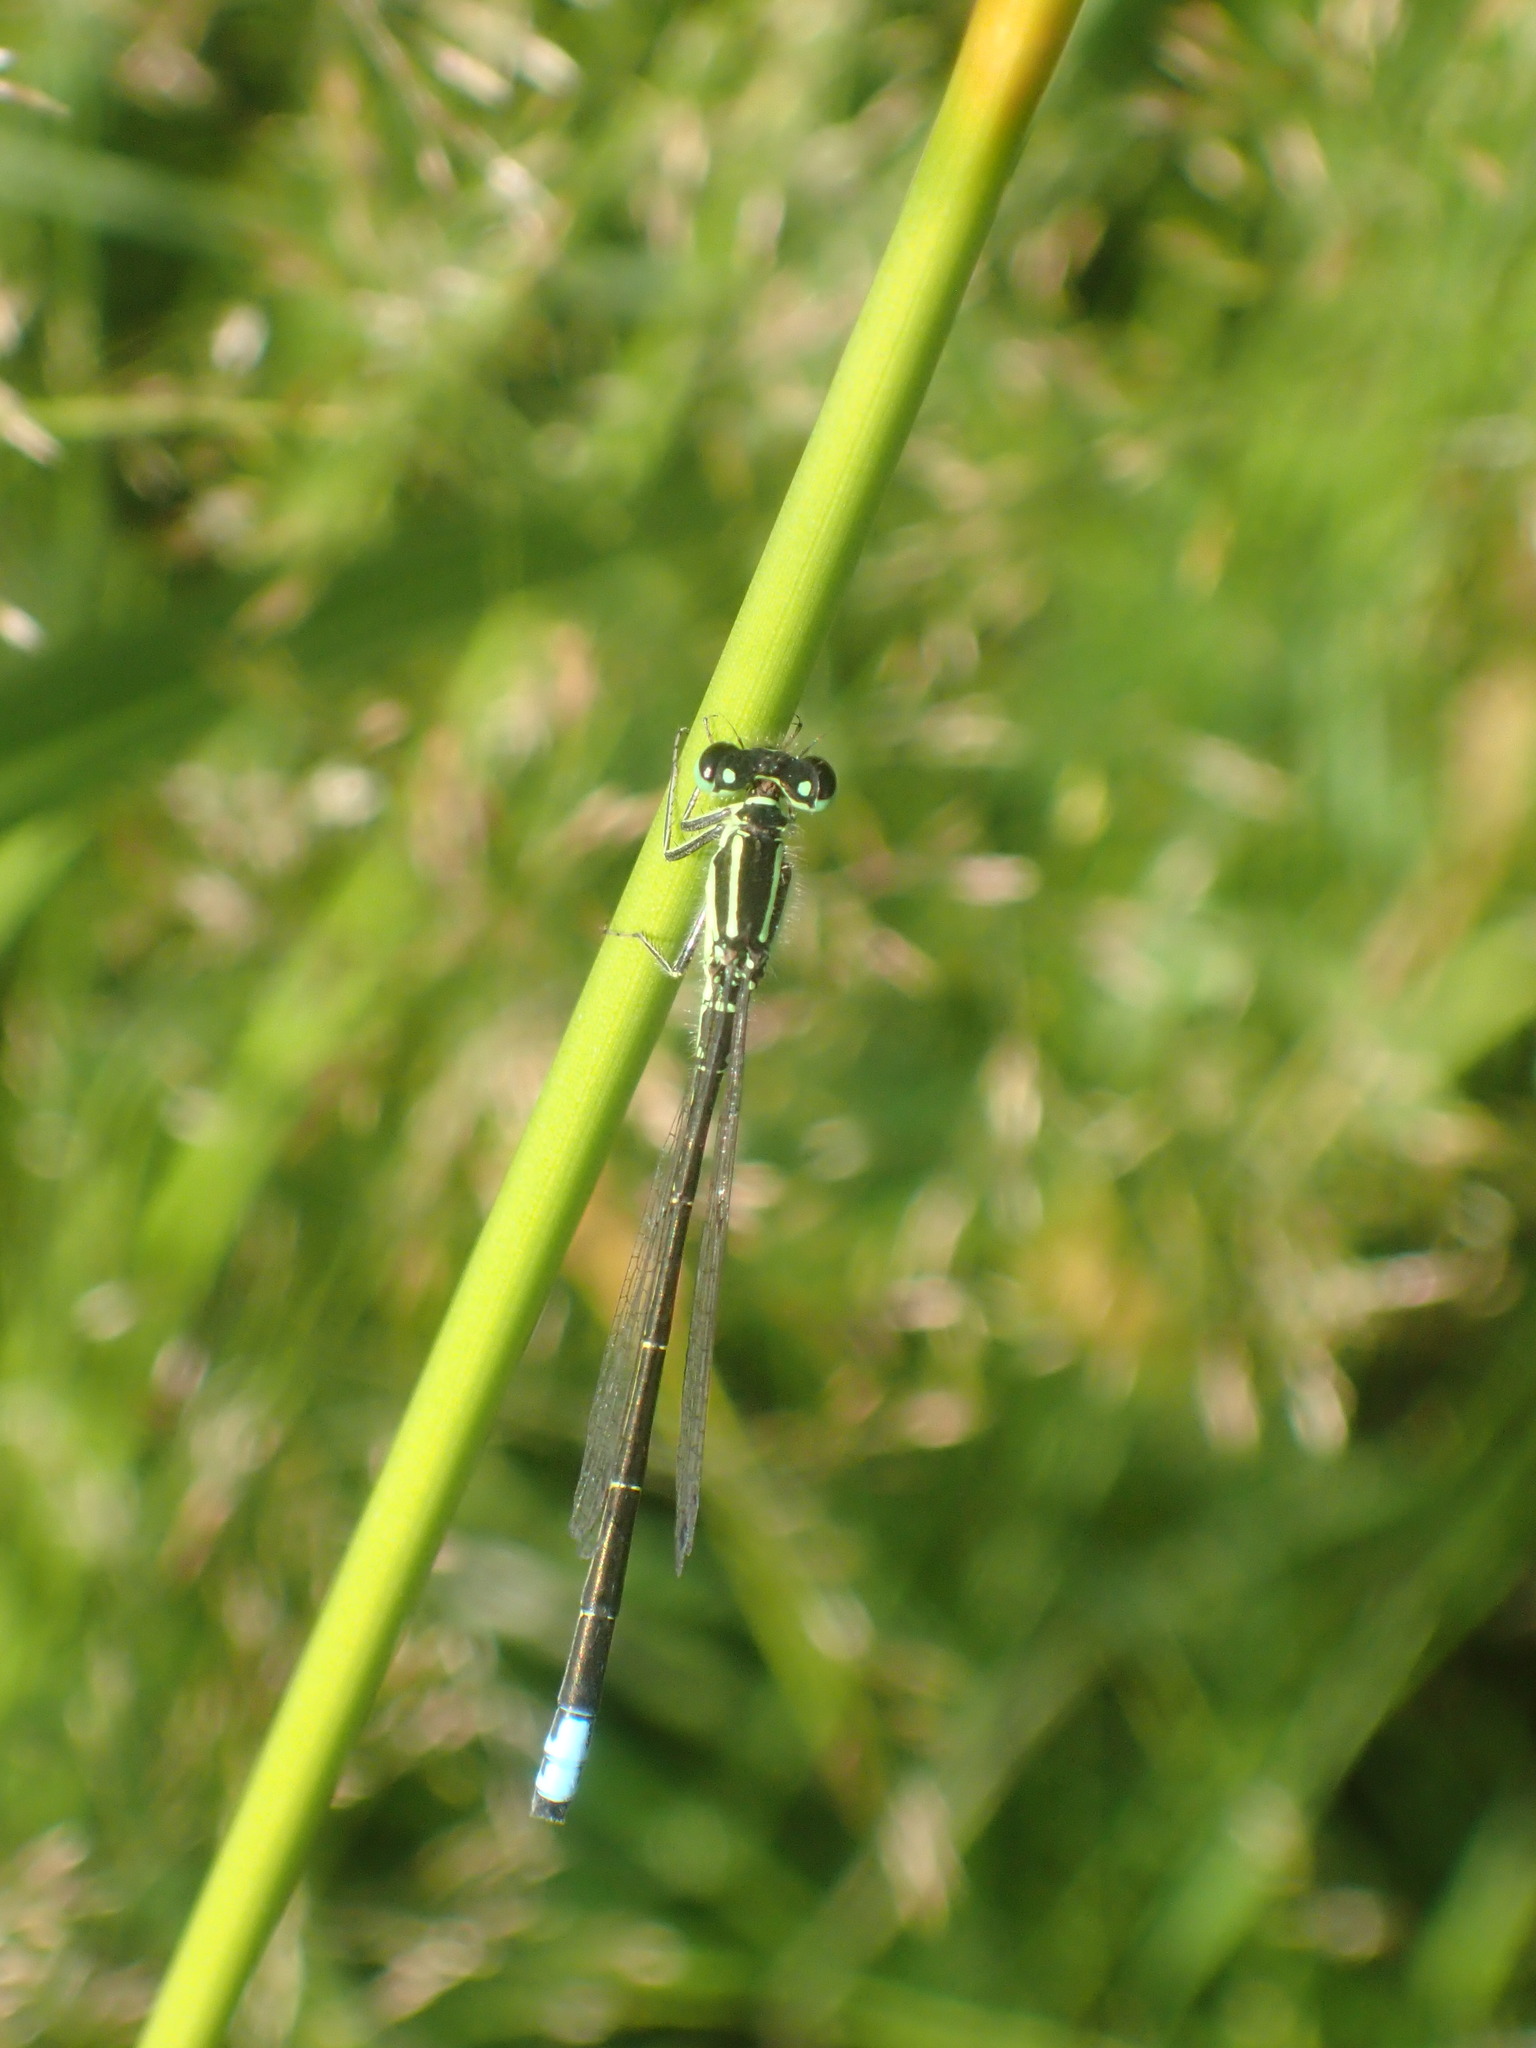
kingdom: Animalia
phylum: Arthropoda
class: Insecta
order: Odonata
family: Coenagrionidae
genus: Ischnura
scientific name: Ischnura verticalis
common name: Eastern forktail
